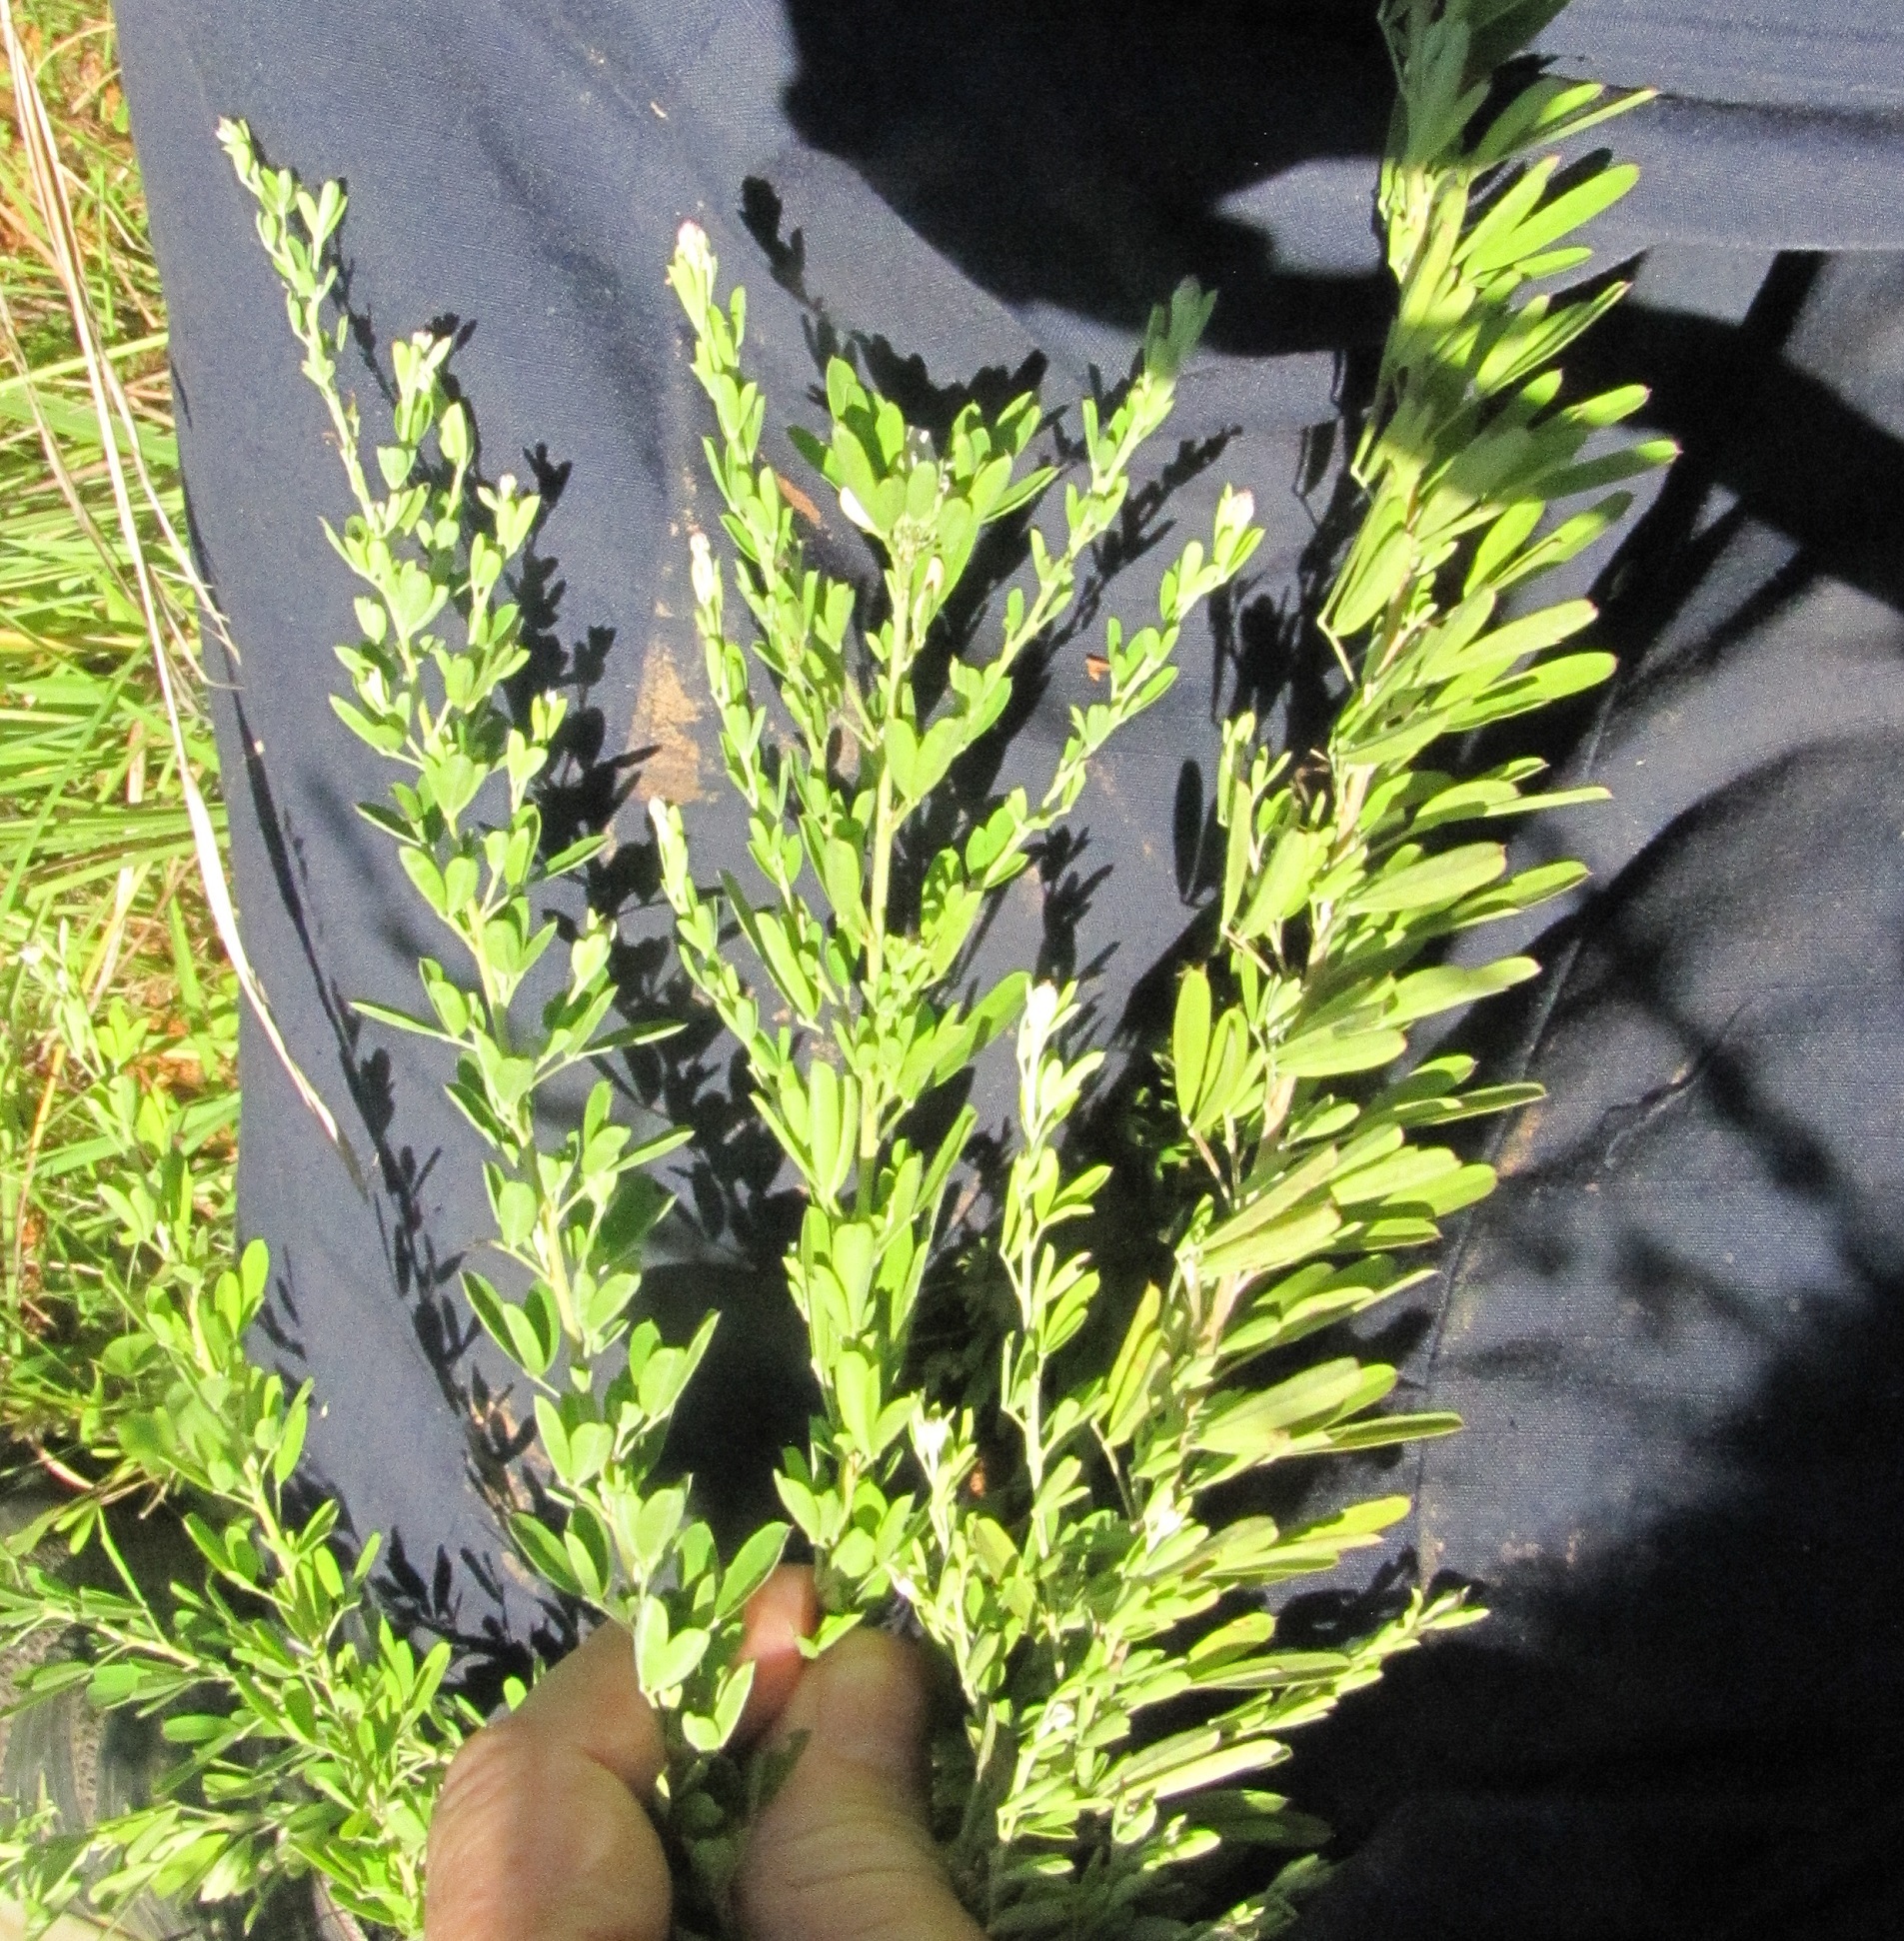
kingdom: Plantae
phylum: Tracheophyta
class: Magnoliopsida
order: Fabales
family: Fabaceae
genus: Lespedeza
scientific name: Lespedeza cuneata
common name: Chinese bush-clover
